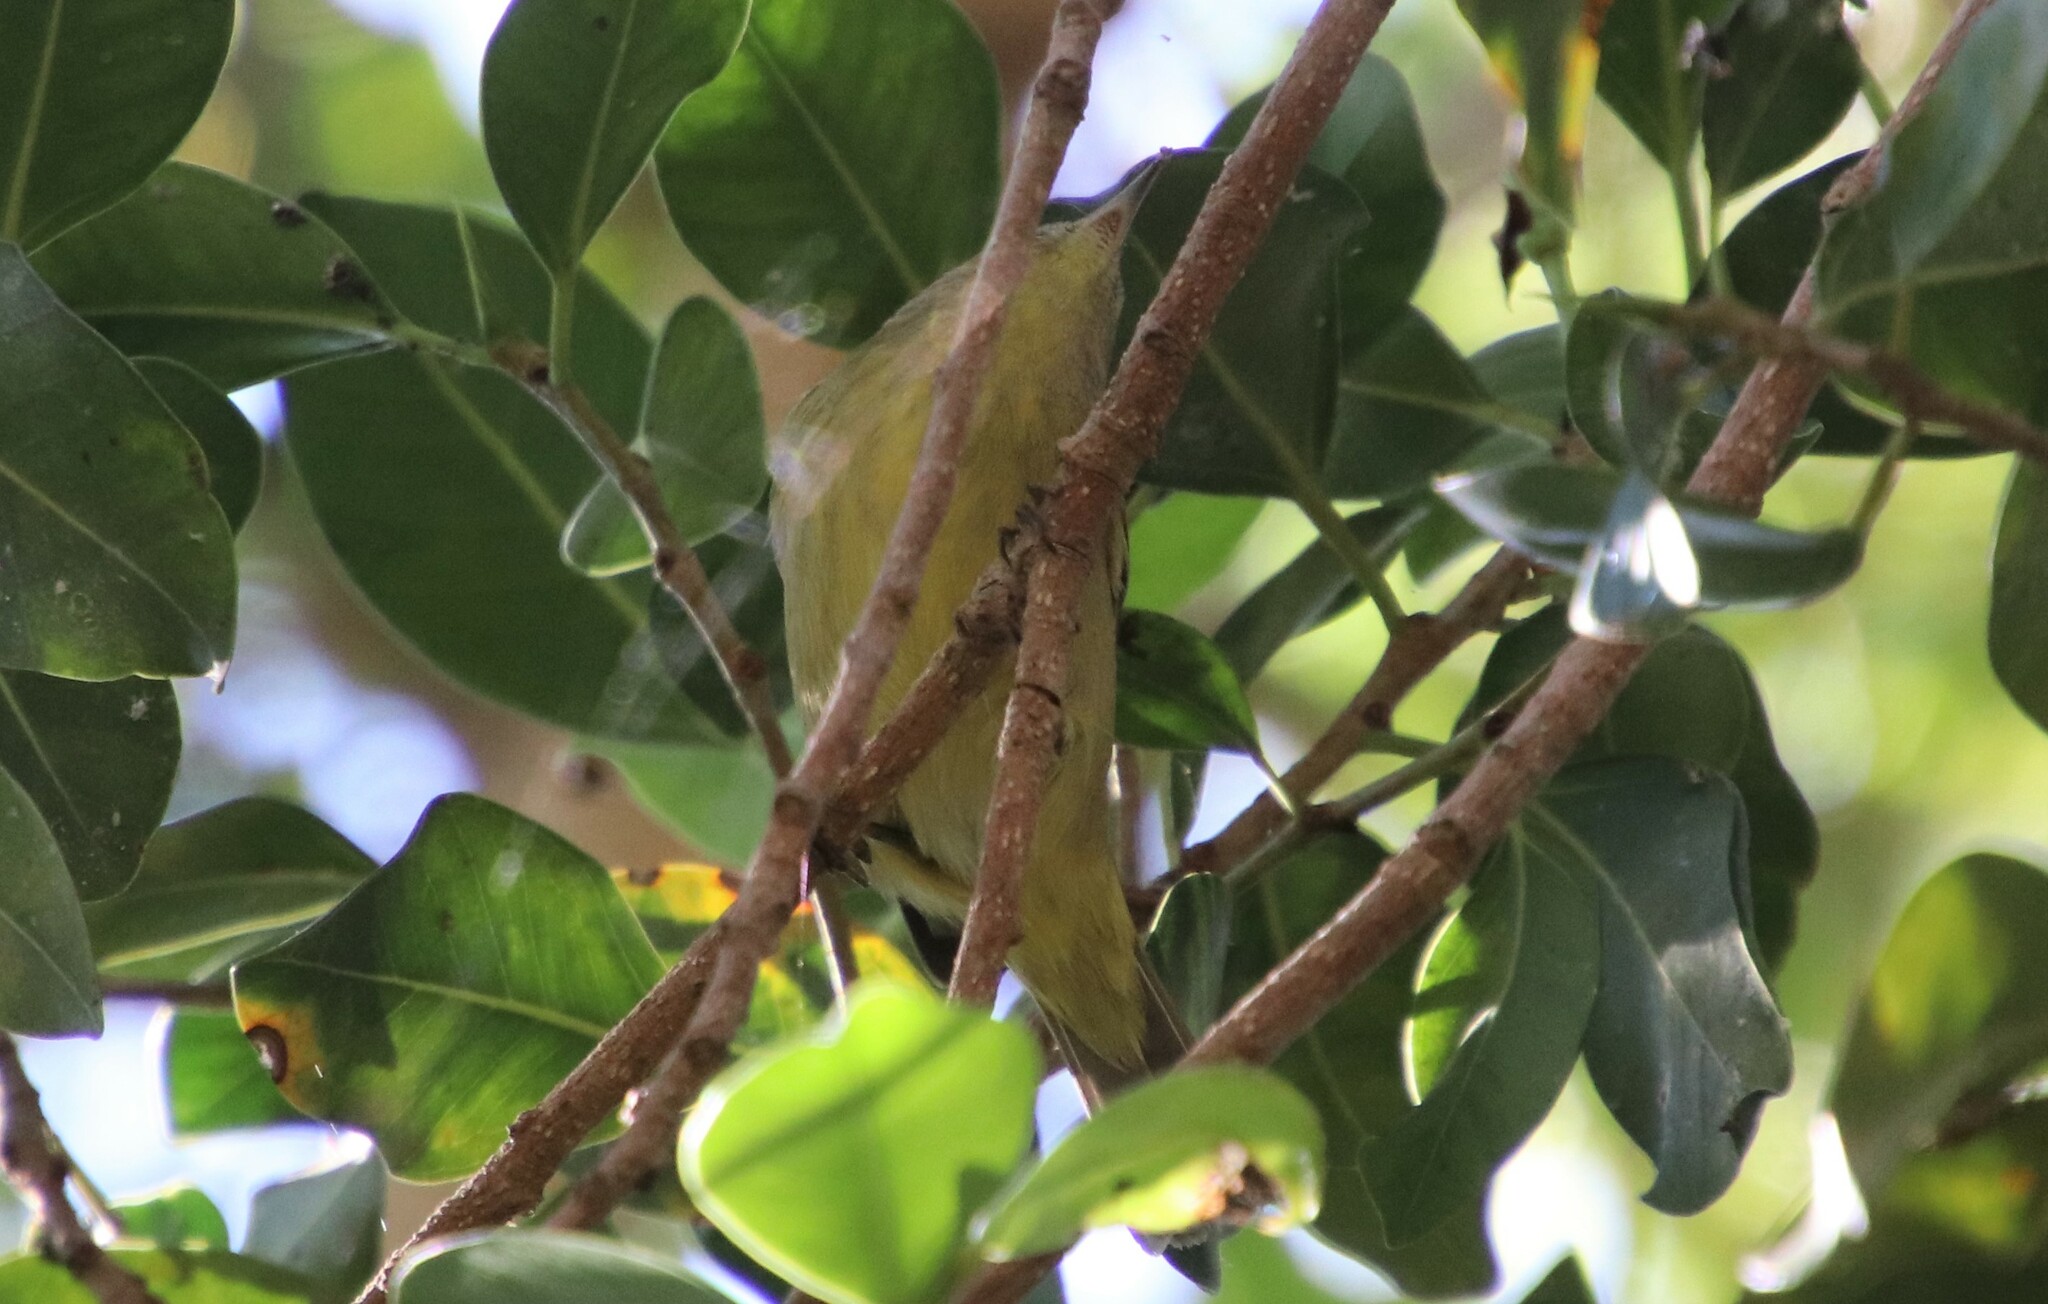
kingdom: Animalia
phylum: Chordata
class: Aves
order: Passeriformes
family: Parulidae
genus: Leiothlypis
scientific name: Leiothlypis celata
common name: Orange-crowned warbler
